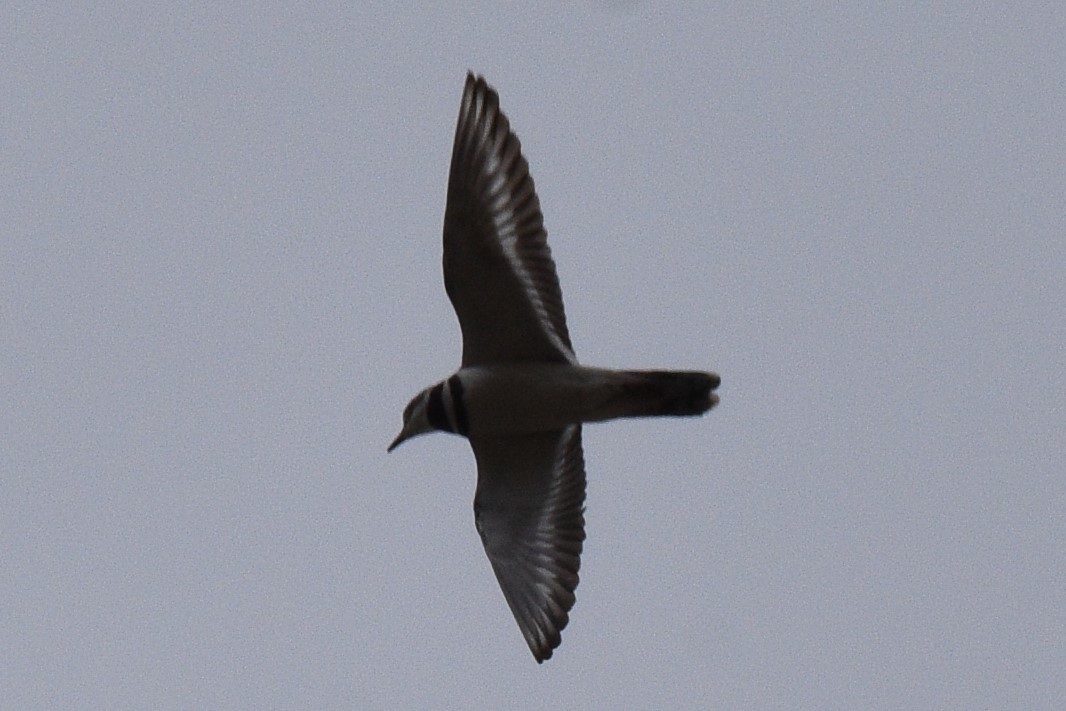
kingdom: Animalia
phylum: Chordata
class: Aves
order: Charadriiformes
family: Charadriidae
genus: Charadrius
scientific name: Charadrius vociferus
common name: Killdeer
